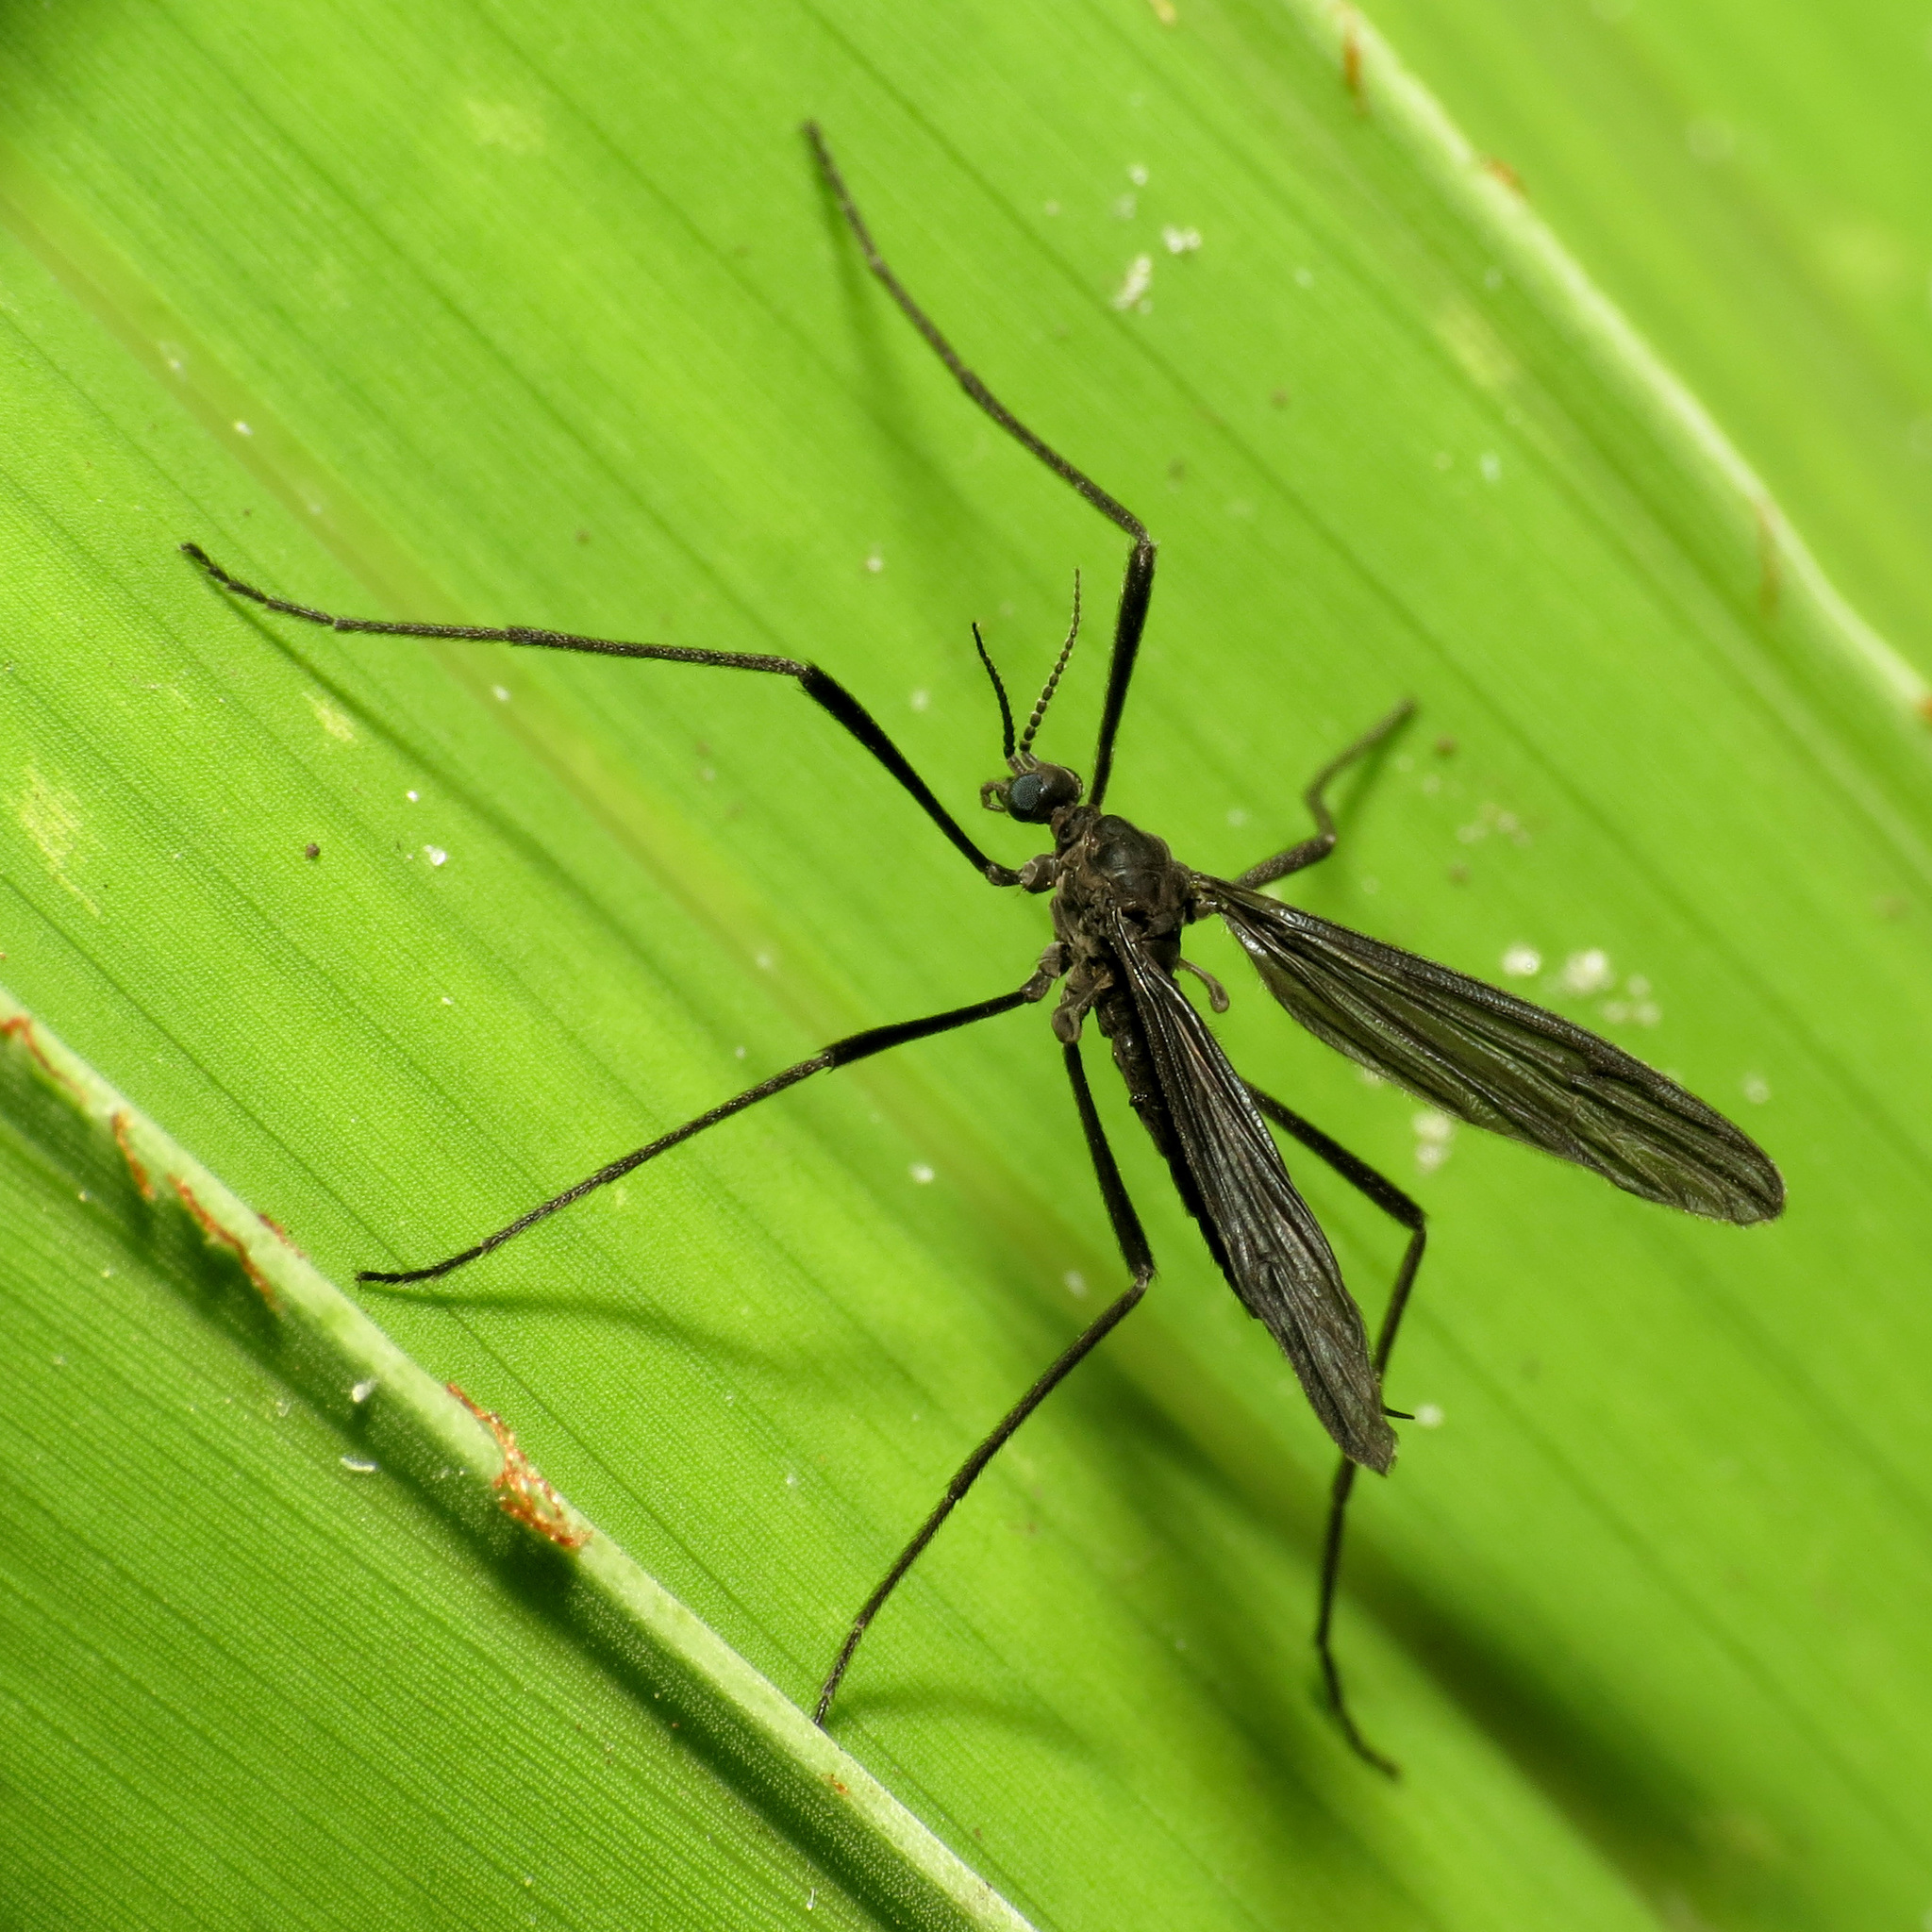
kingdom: Animalia
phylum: Arthropoda
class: Insecta
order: Diptera
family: Limoniidae
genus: Eugnophomyia
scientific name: Eugnophomyia luctuosa
